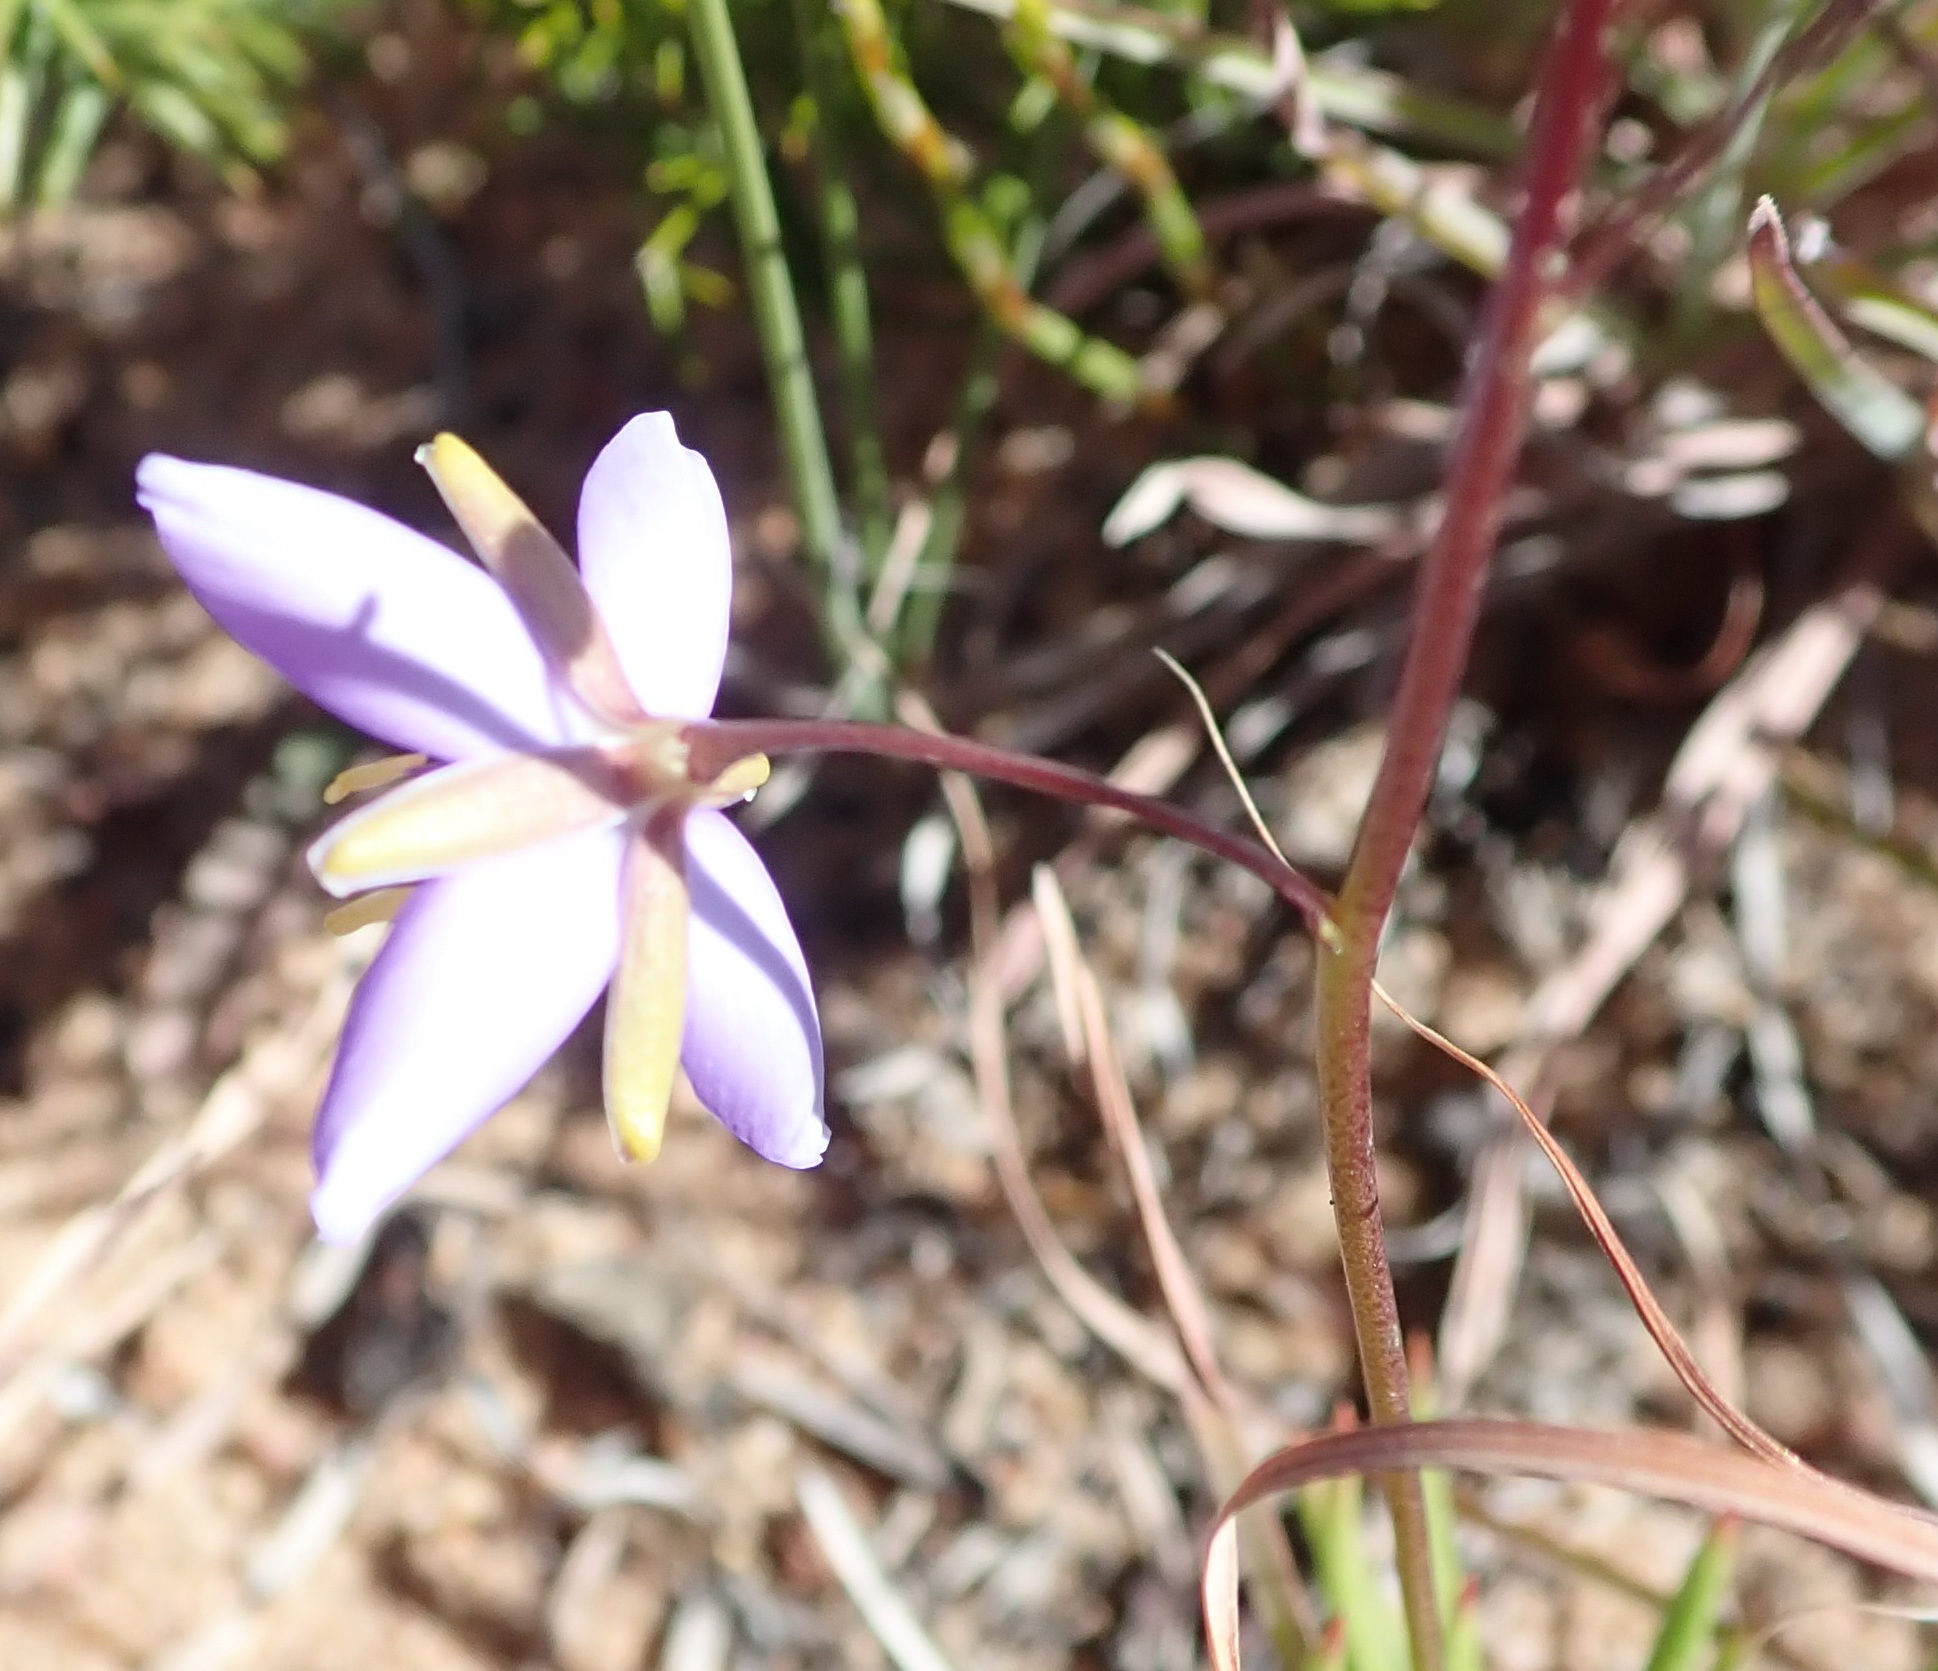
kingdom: Plantae
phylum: Tracheophyta
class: Magnoliopsida
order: Brassicales
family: Brassicaceae
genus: Heliophila
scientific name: Heliophila subulata
